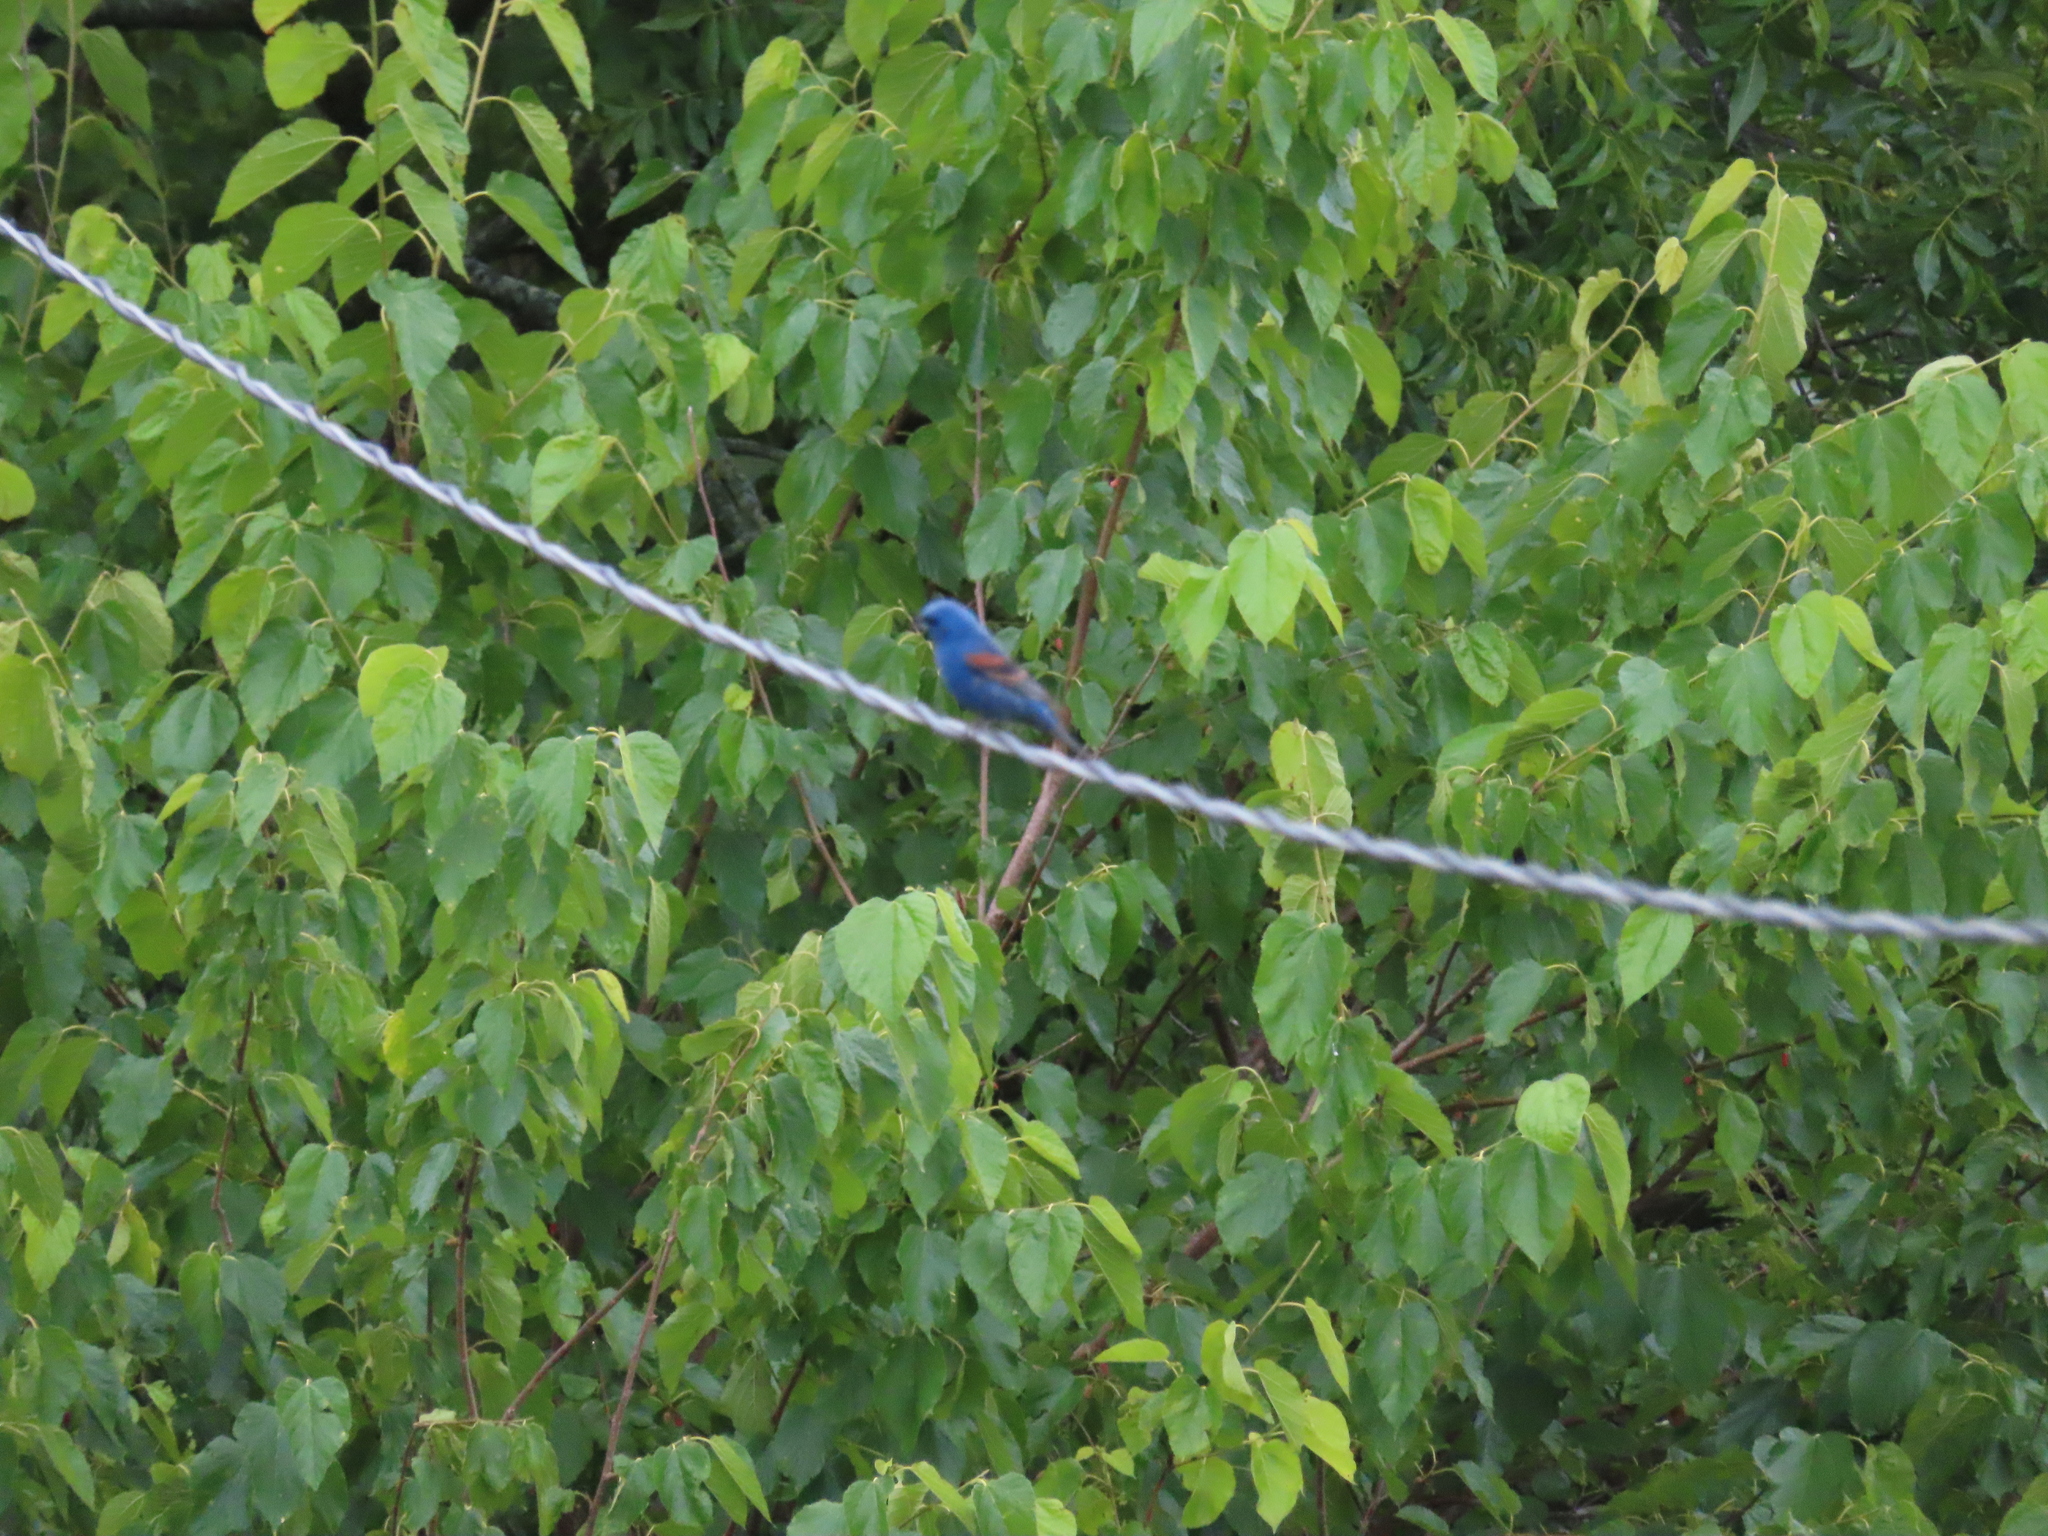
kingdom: Animalia
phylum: Chordata
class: Aves
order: Passeriformes
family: Cardinalidae
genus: Passerina
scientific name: Passerina caerulea
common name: Blue grosbeak
